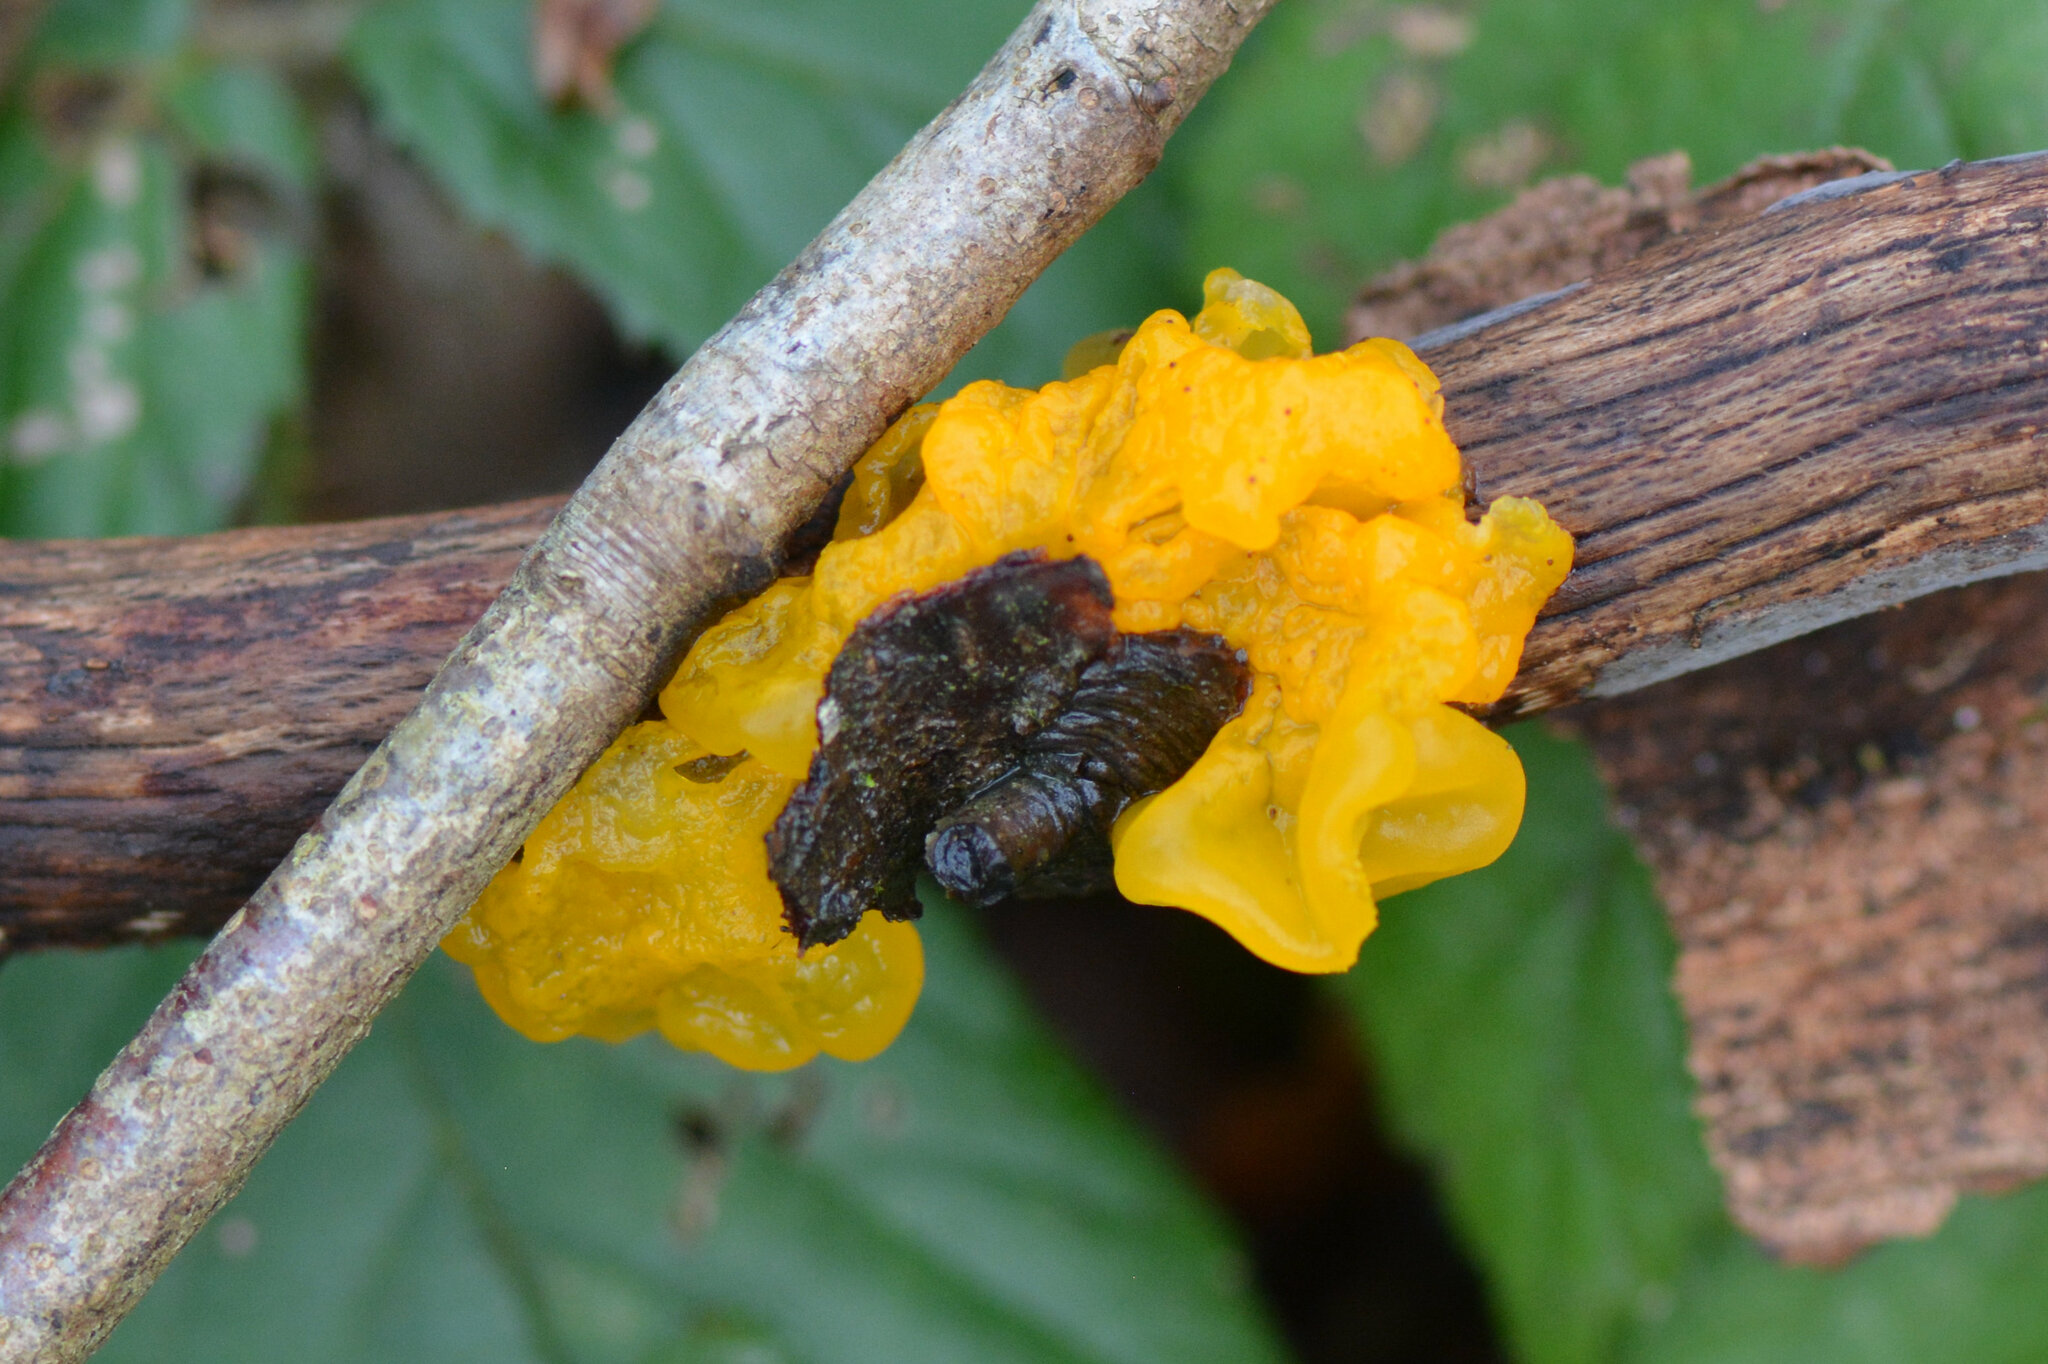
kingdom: Fungi
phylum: Basidiomycota
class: Tremellomycetes
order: Tremellales
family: Tremellaceae
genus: Tremella
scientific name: Tremella mesenterica
